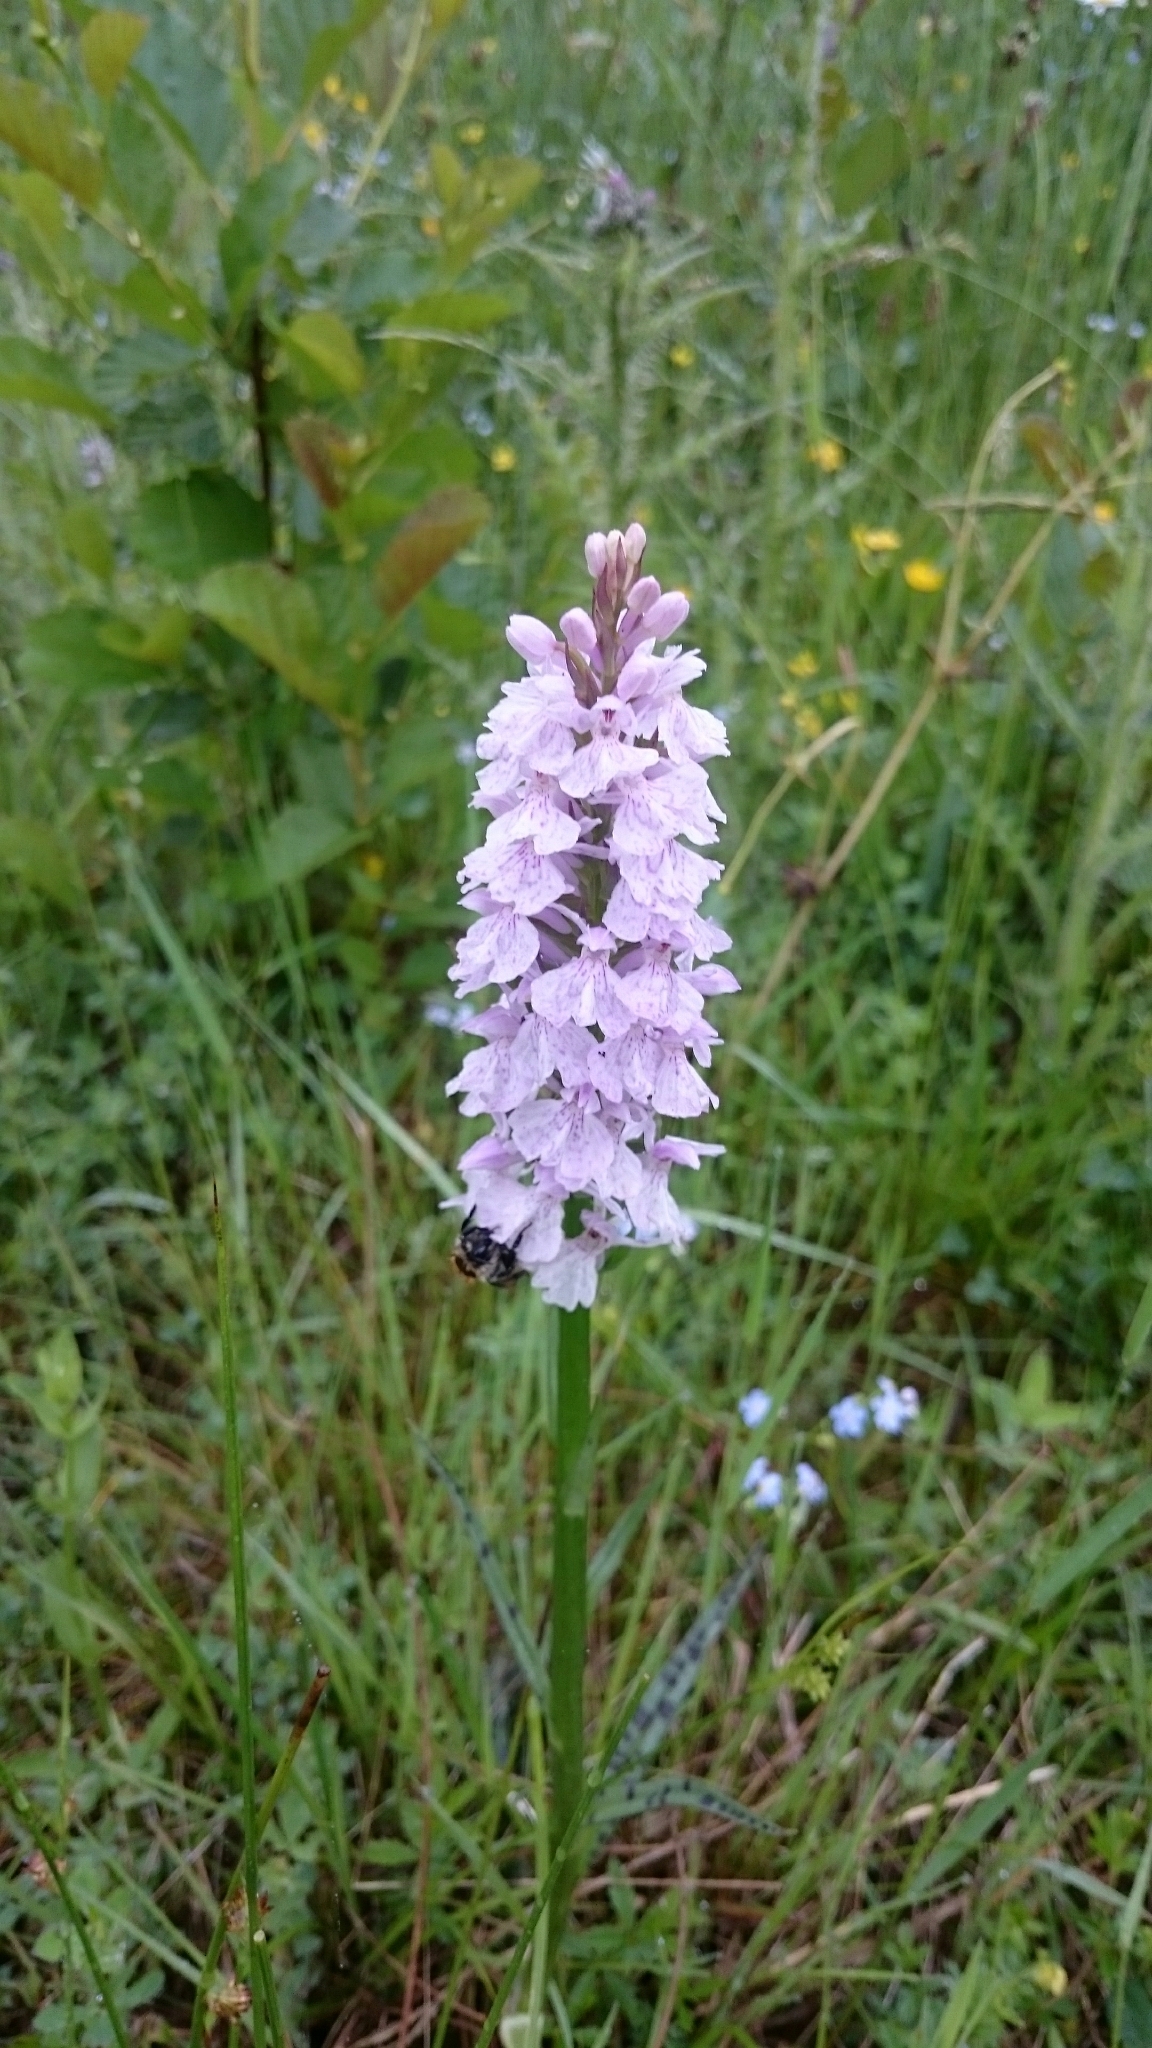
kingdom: Plantae
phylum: Tracheophyta
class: Liliopsida
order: Asparagales
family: Orchidaceae
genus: Dactylorhiza
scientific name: Dactylorhiza maculata
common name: Heath spotted-orchid
